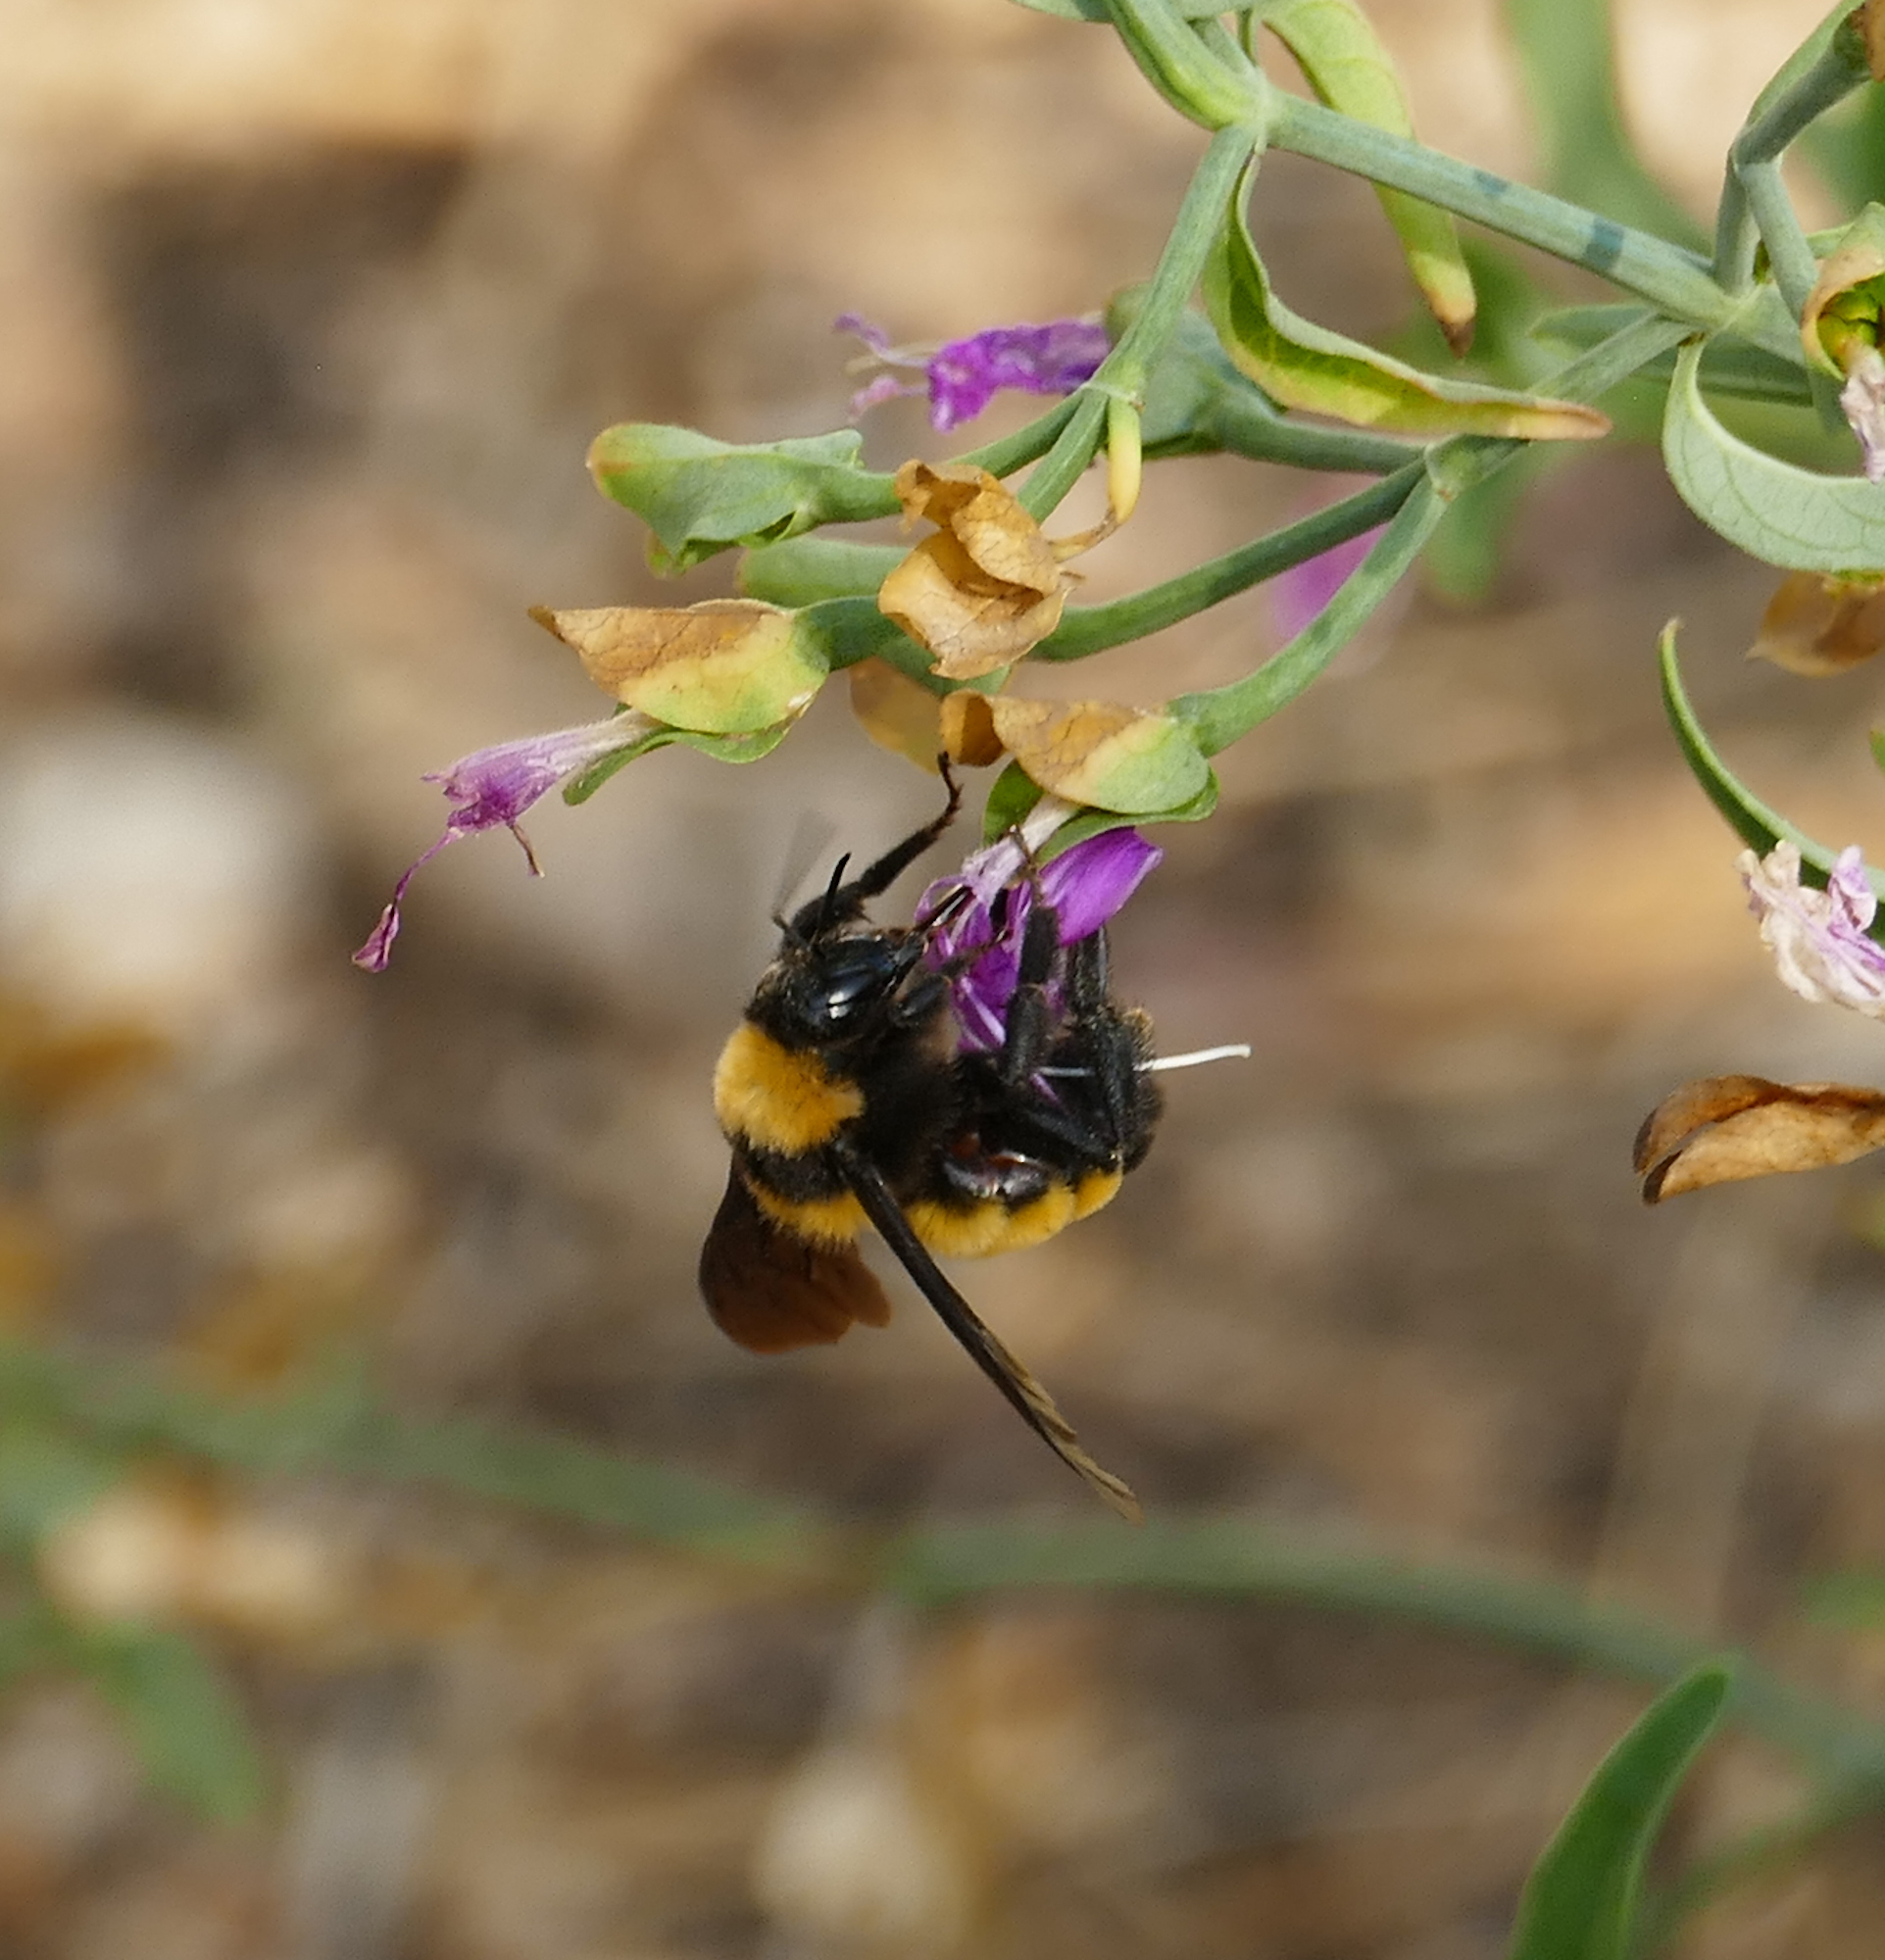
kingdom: Animalia
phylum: Arthropoda
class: Insecta
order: Hymenoptera
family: Apidae
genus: Bombus
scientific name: Bombus sonorus
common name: Sonoran bumble bee
